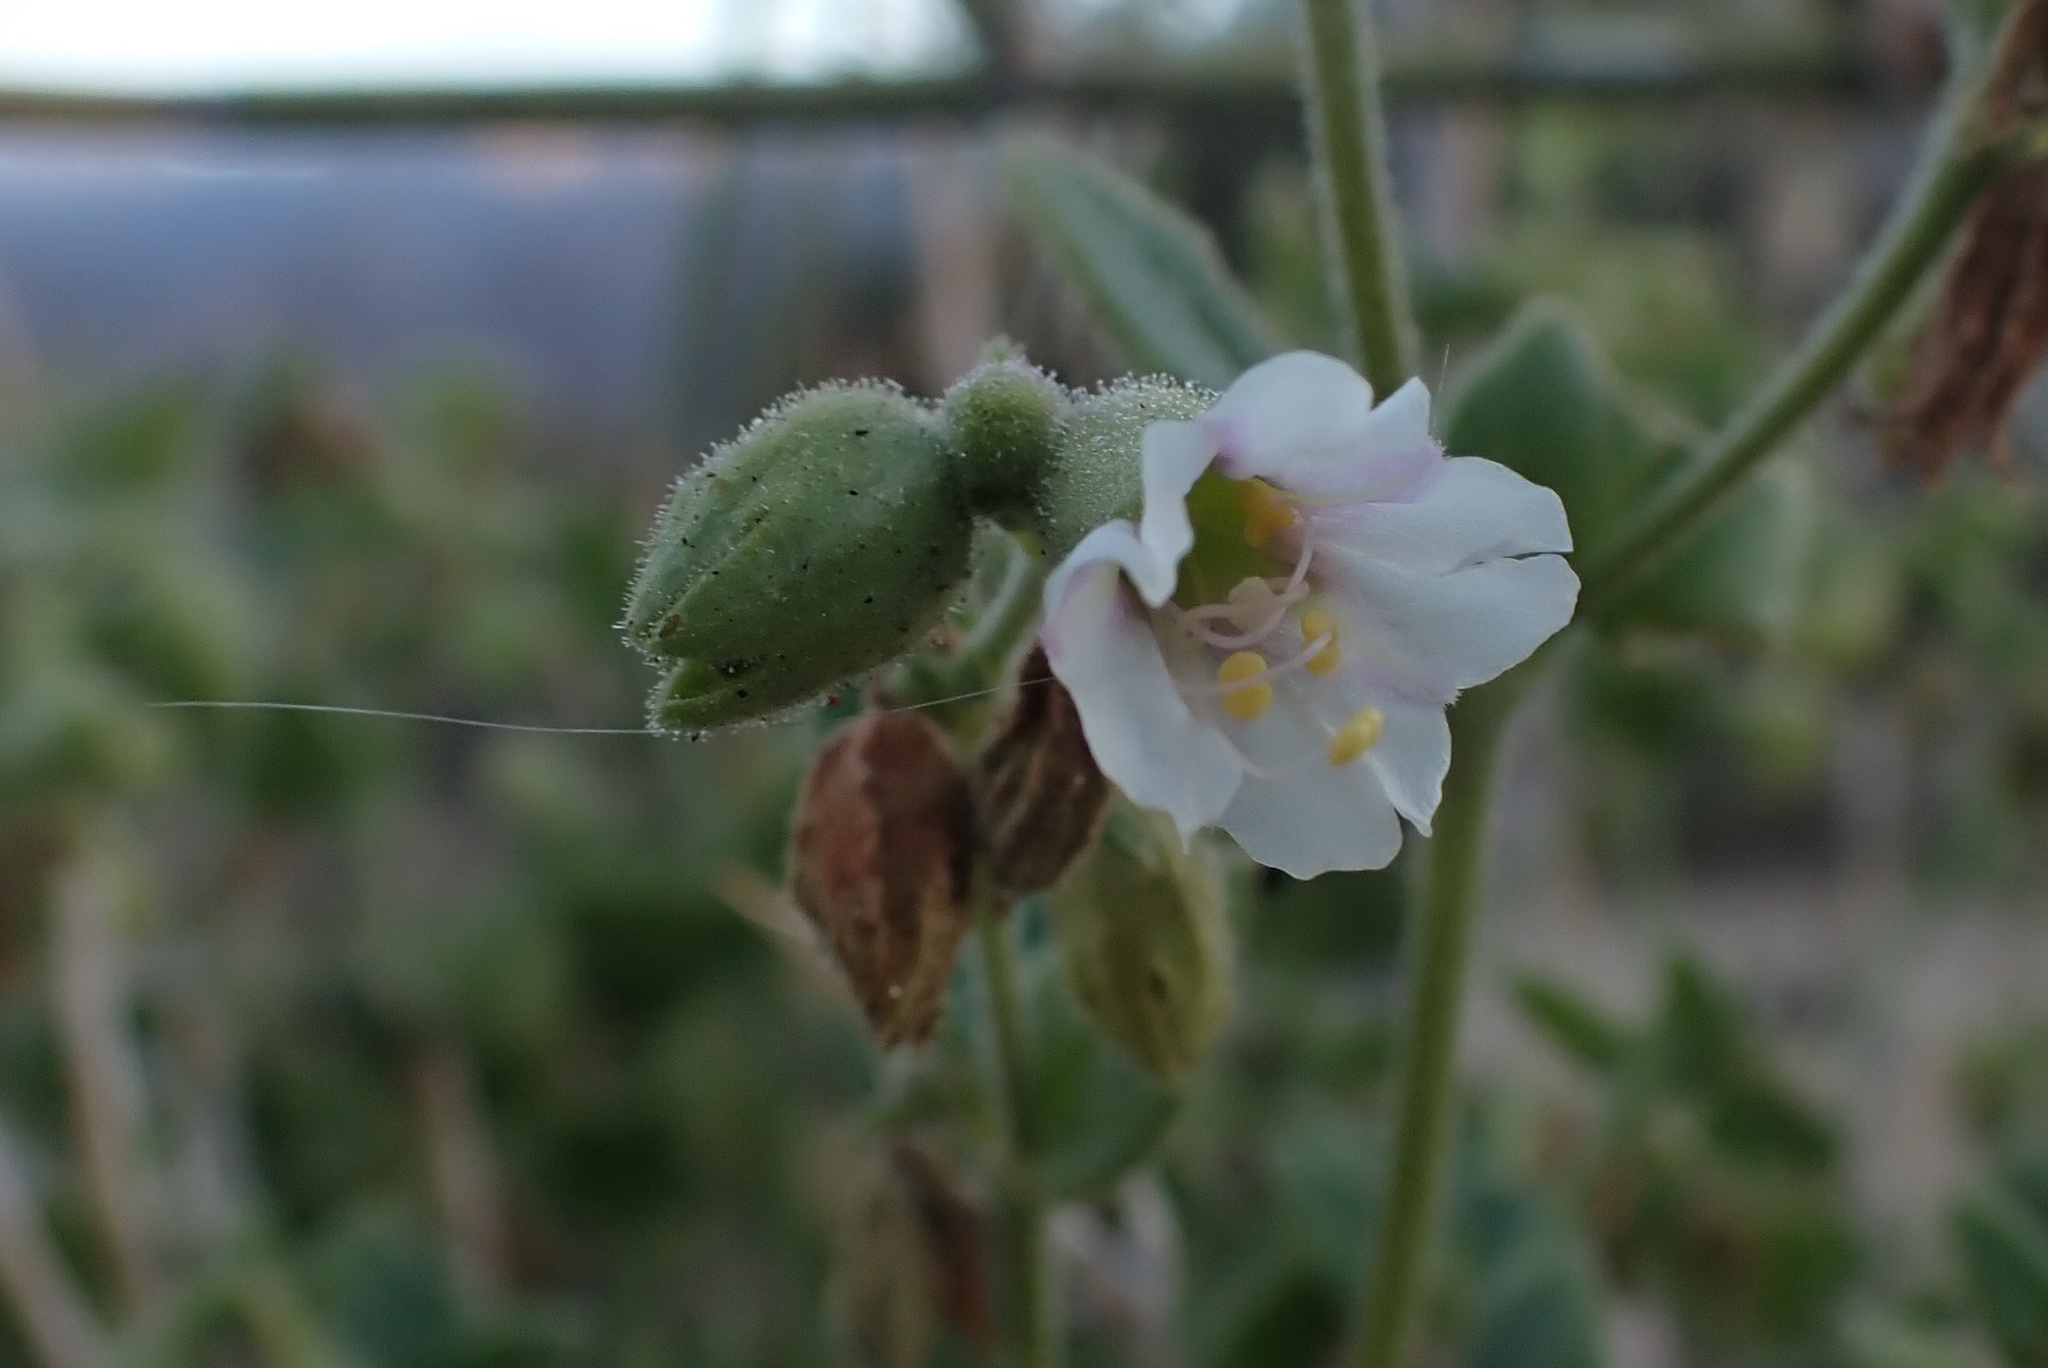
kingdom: Plantae
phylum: Tracheophyta
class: Magnoliopsida
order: Caryophyllales
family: Nyctaginaceae
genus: Mirabilis
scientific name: Mirabilis tenuiloba
